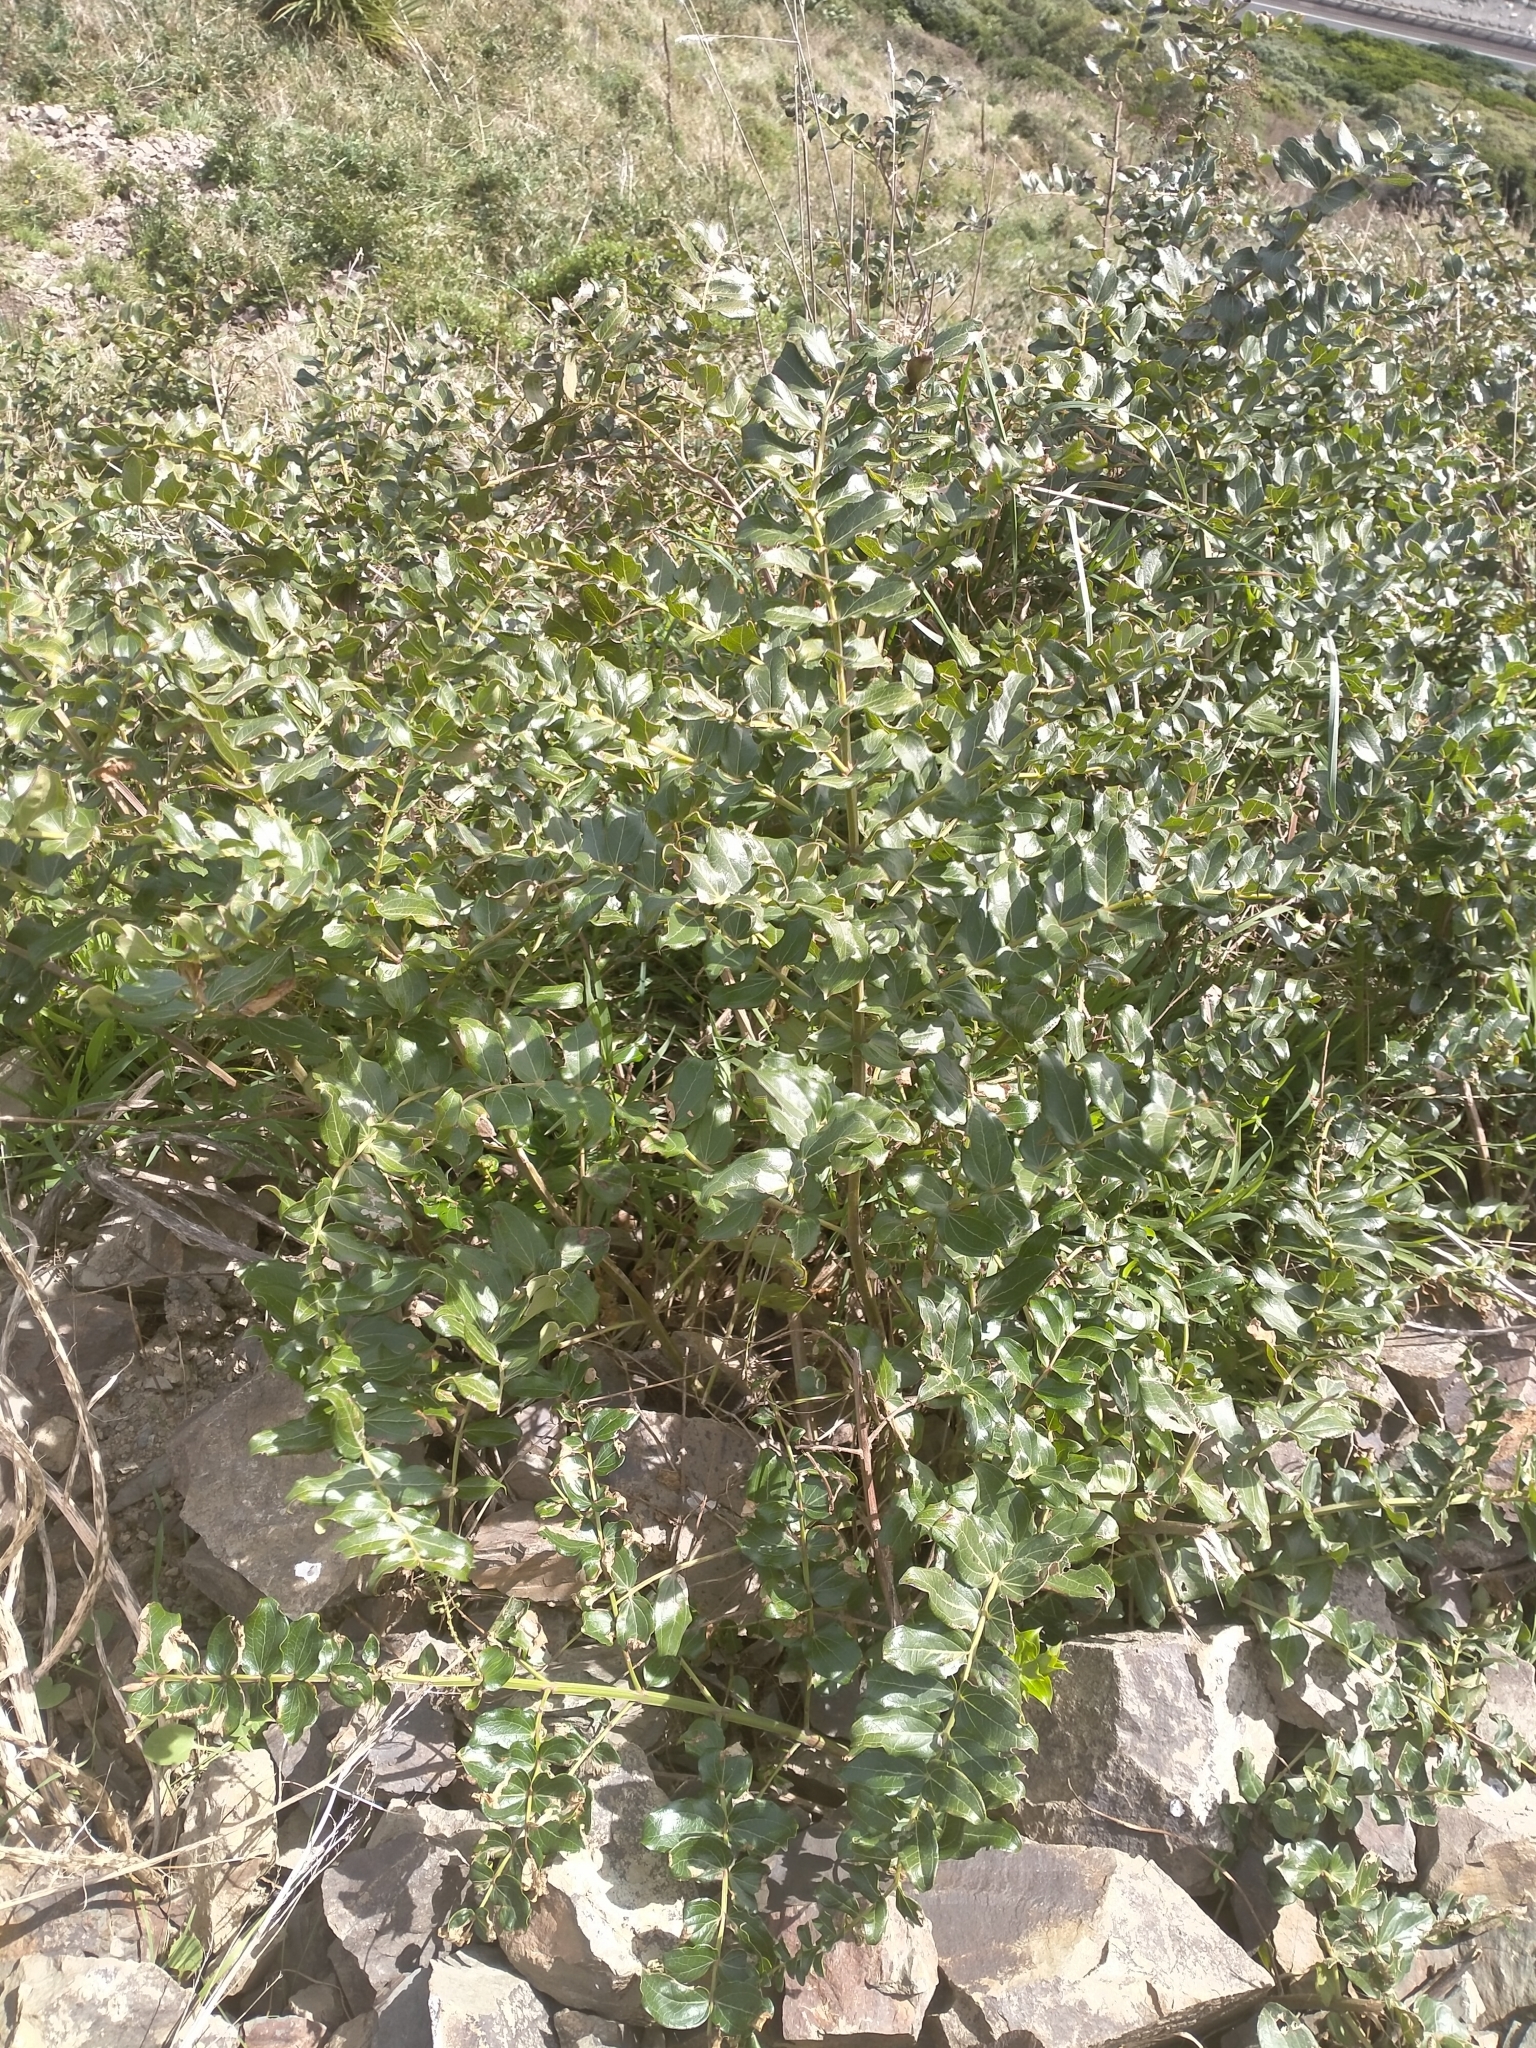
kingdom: Plantae
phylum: Tracheophyta
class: Magnoliopsida
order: Cucurbitales
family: Coriariaceae
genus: Coriaria
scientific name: Coriaria arborea
